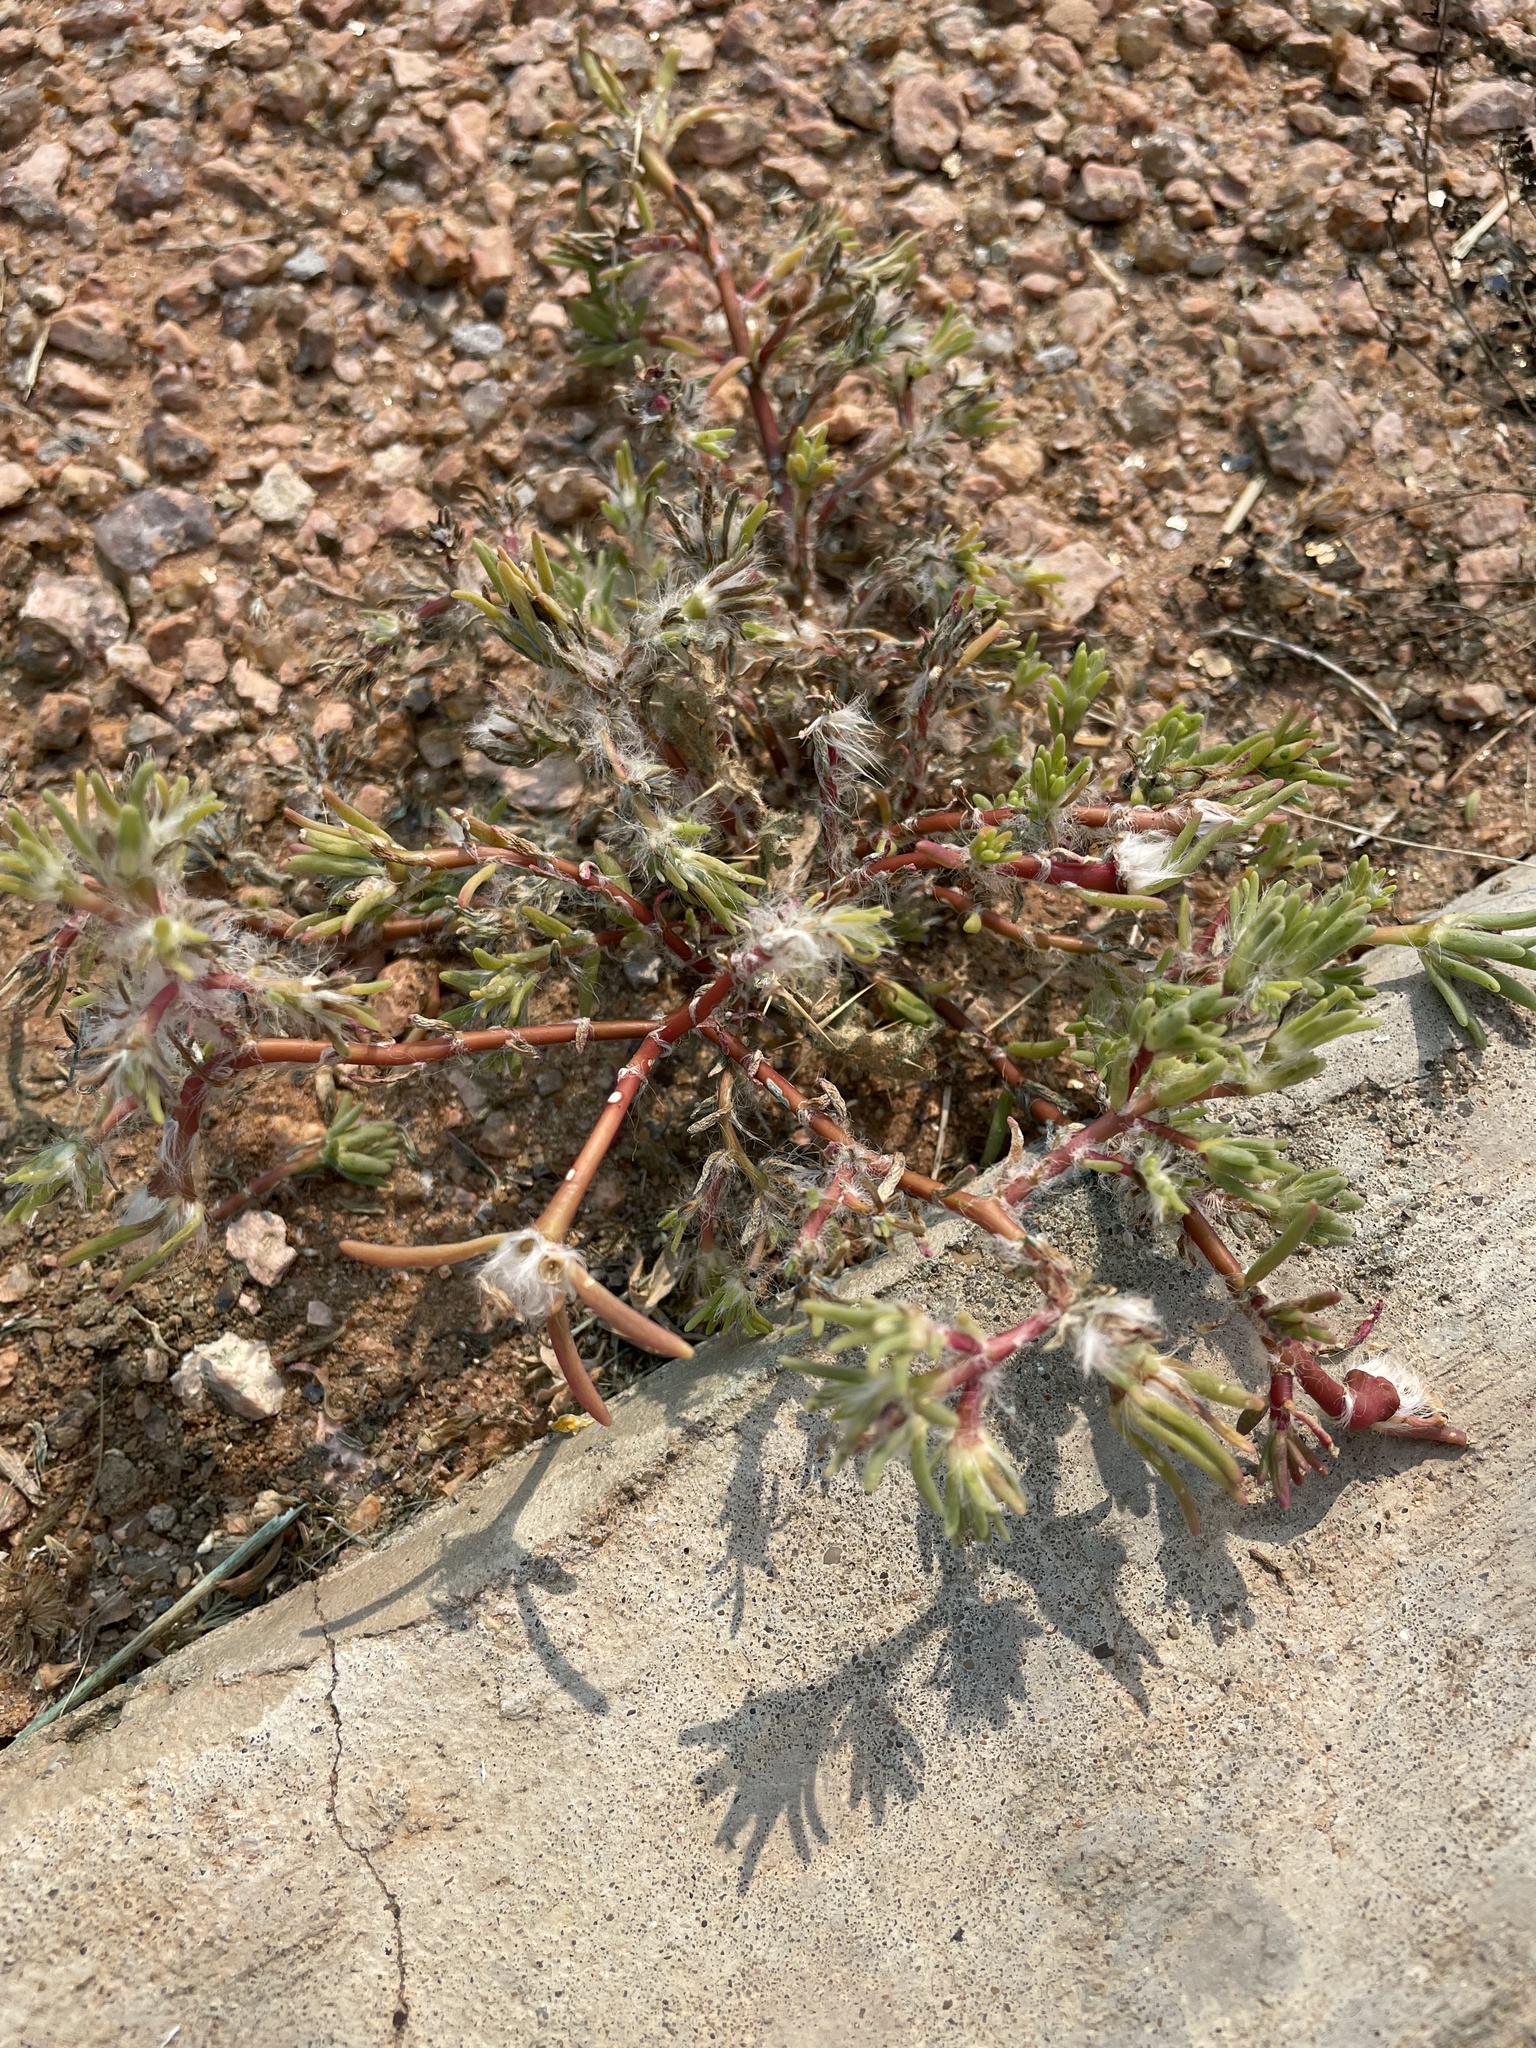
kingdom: Plantae
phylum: Tracheophyta
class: Magnoliopsida
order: Caryophyllales
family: Portulacaceae
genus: Portulaca
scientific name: Portulaca pilosa
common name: Kiss me quick
